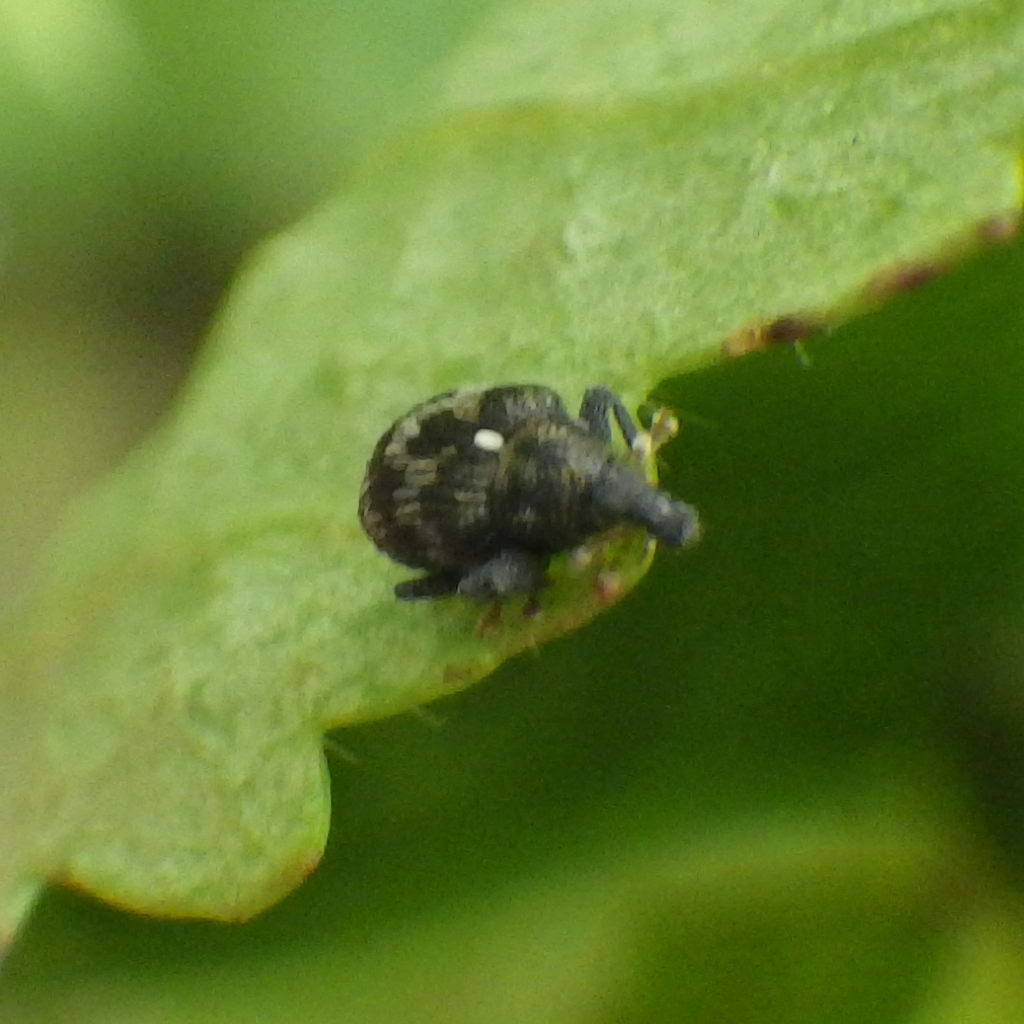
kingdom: Animalia
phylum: Arthropoda
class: Insecta
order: Coleoptera
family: Curculionidae
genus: Piazorhinus
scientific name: Piazorhinus scutellaris
